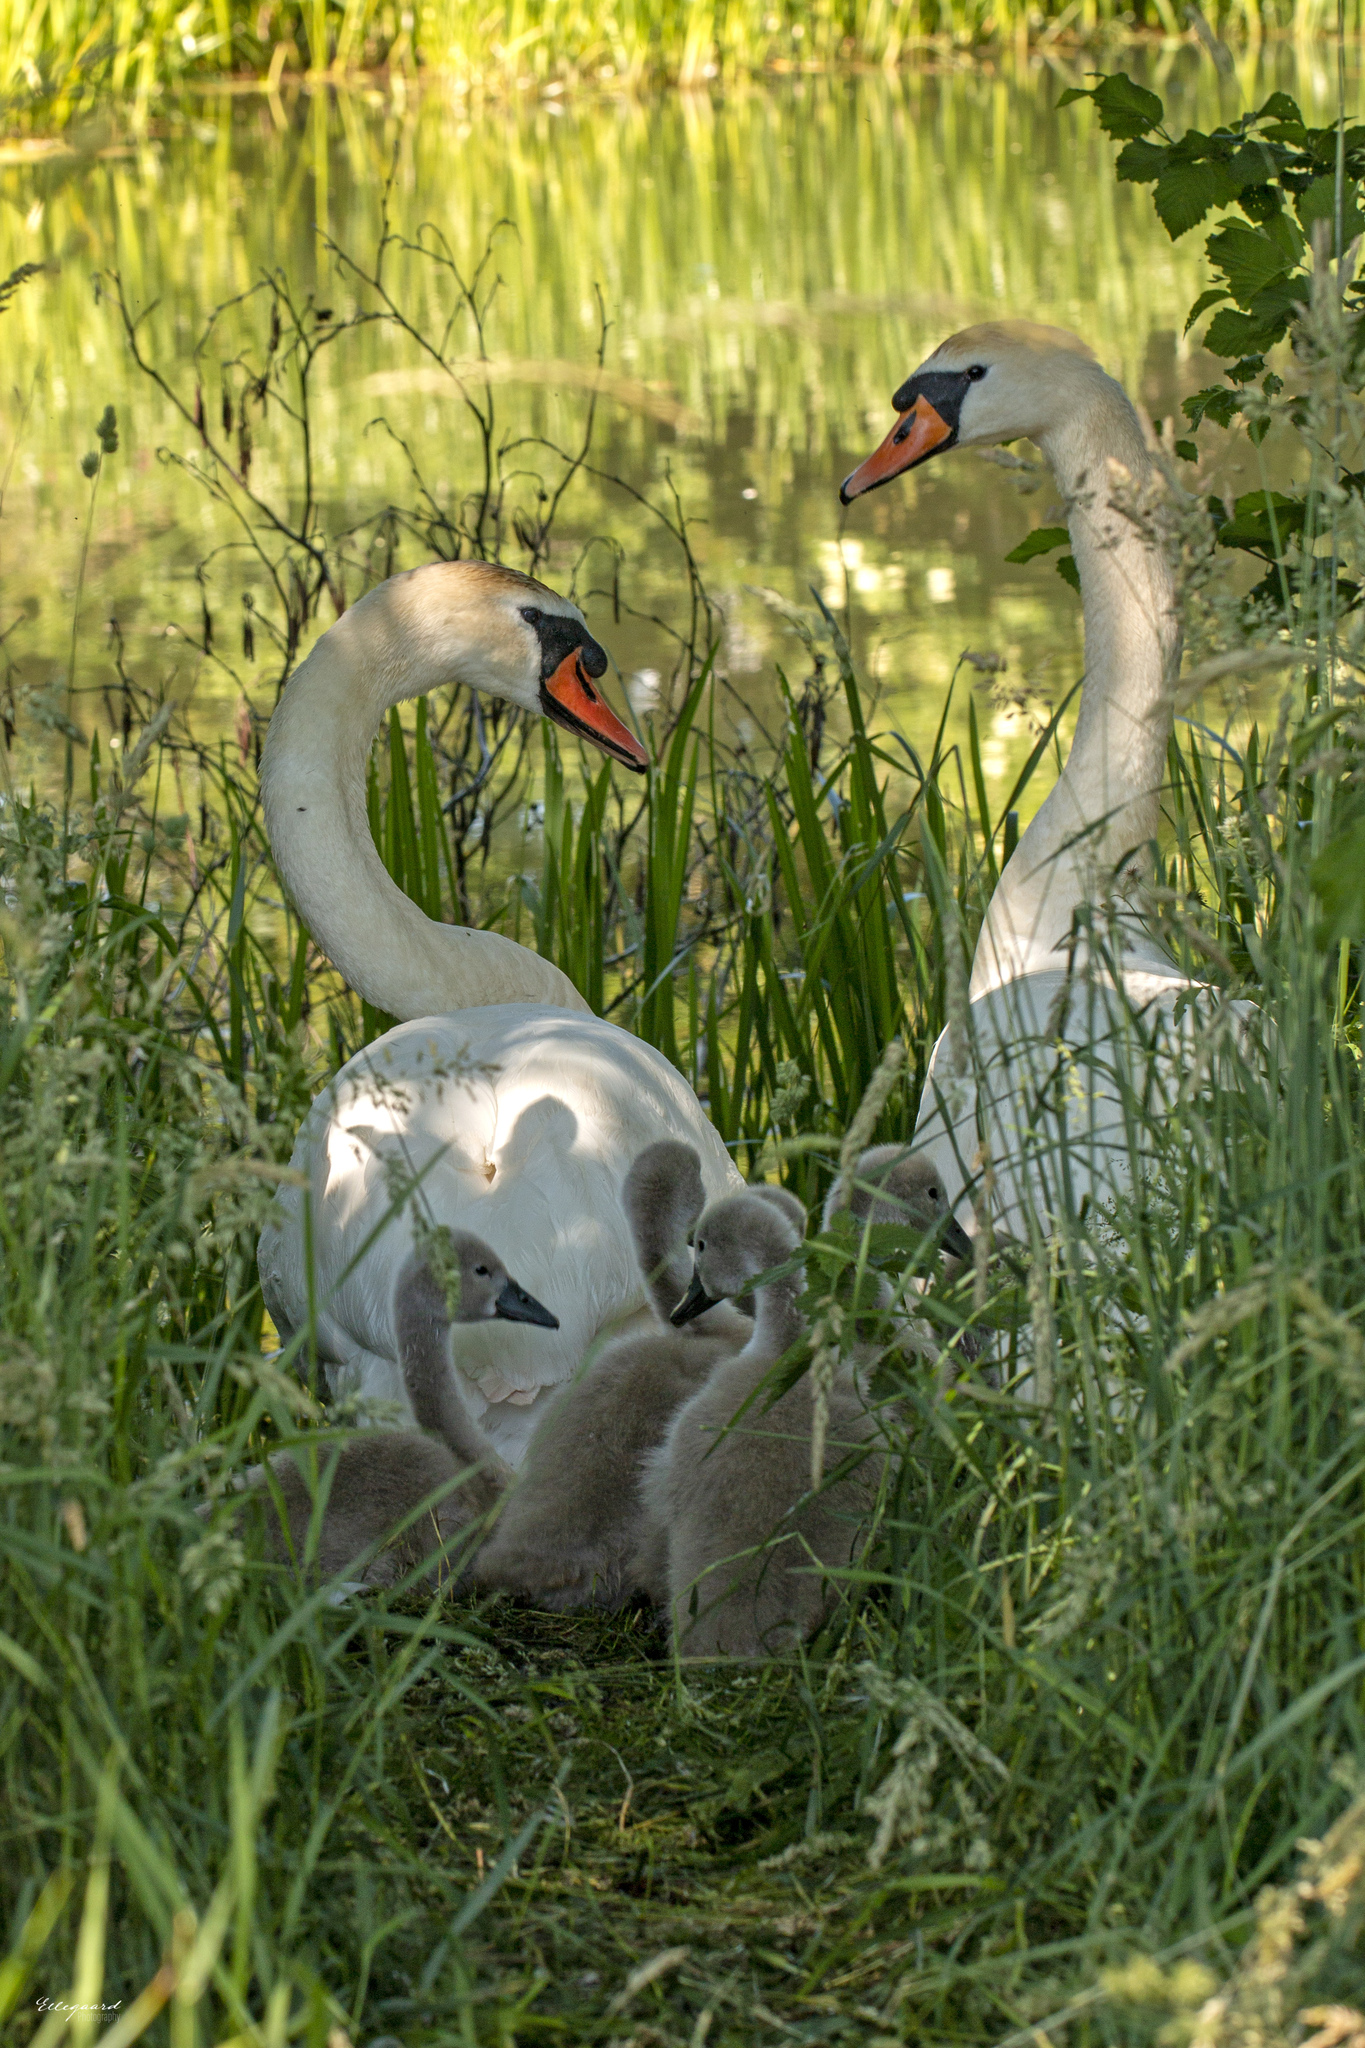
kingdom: Animalia
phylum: Chordata
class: Aves
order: Anseriformes
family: Anatidae
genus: Cygnus
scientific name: Cygnus olor
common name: Mute swan
